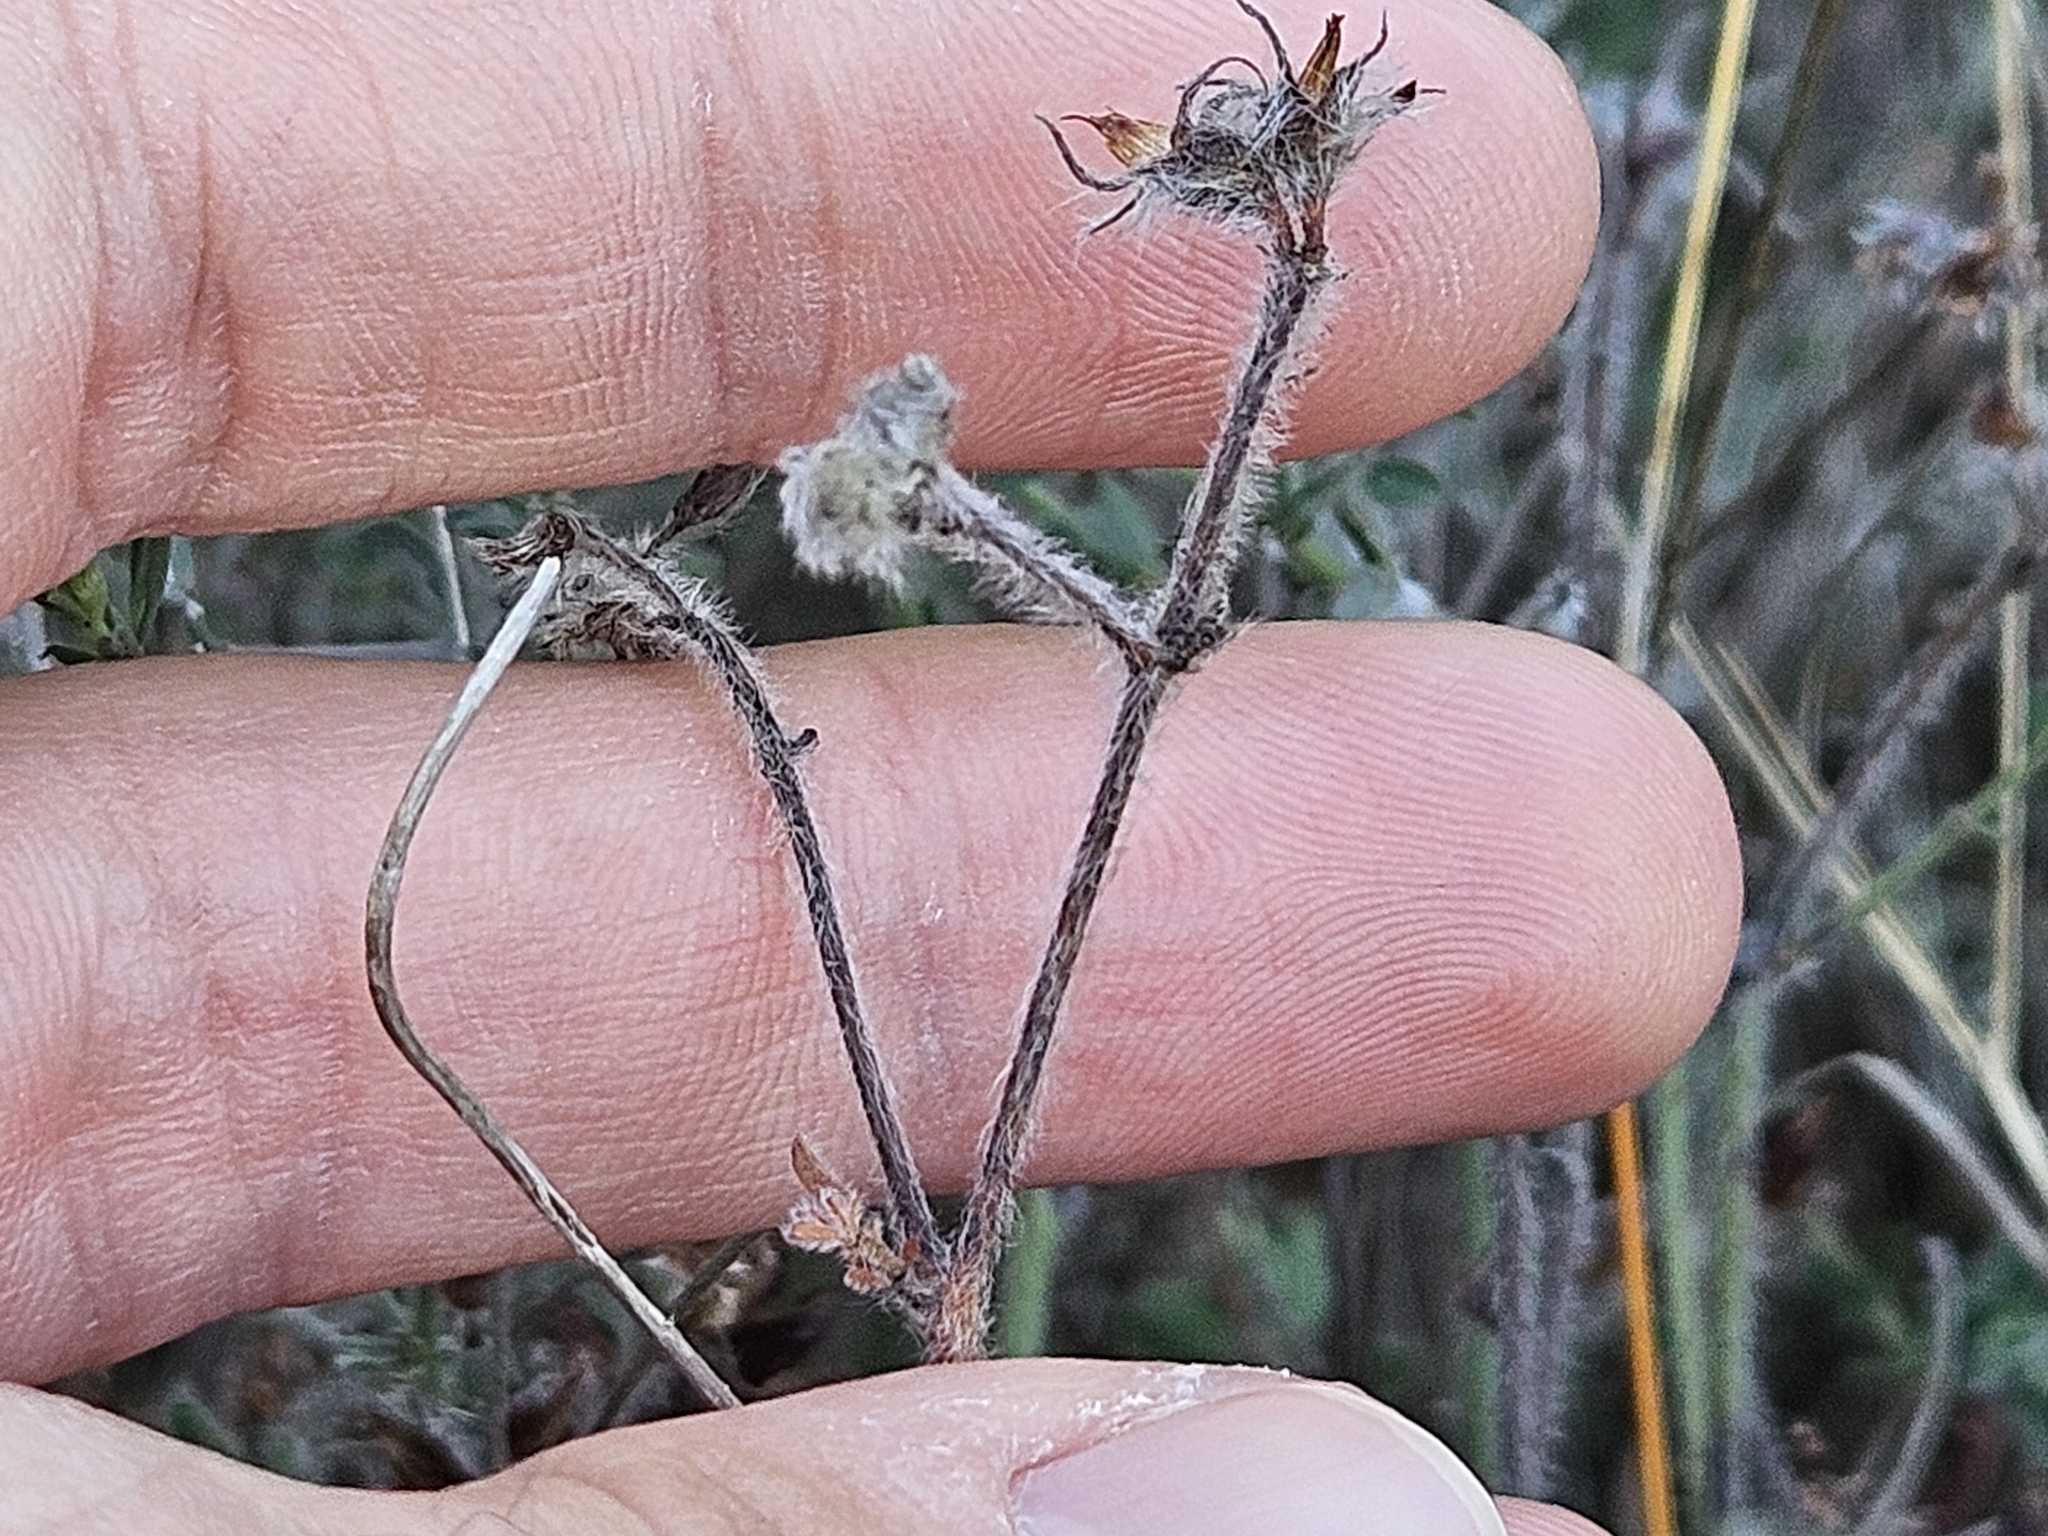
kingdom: Plantae
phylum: Tracheophyta
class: Magnoliopsida
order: Fabales
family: Fabaceae
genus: Lotus
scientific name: Lotus hirsutus
